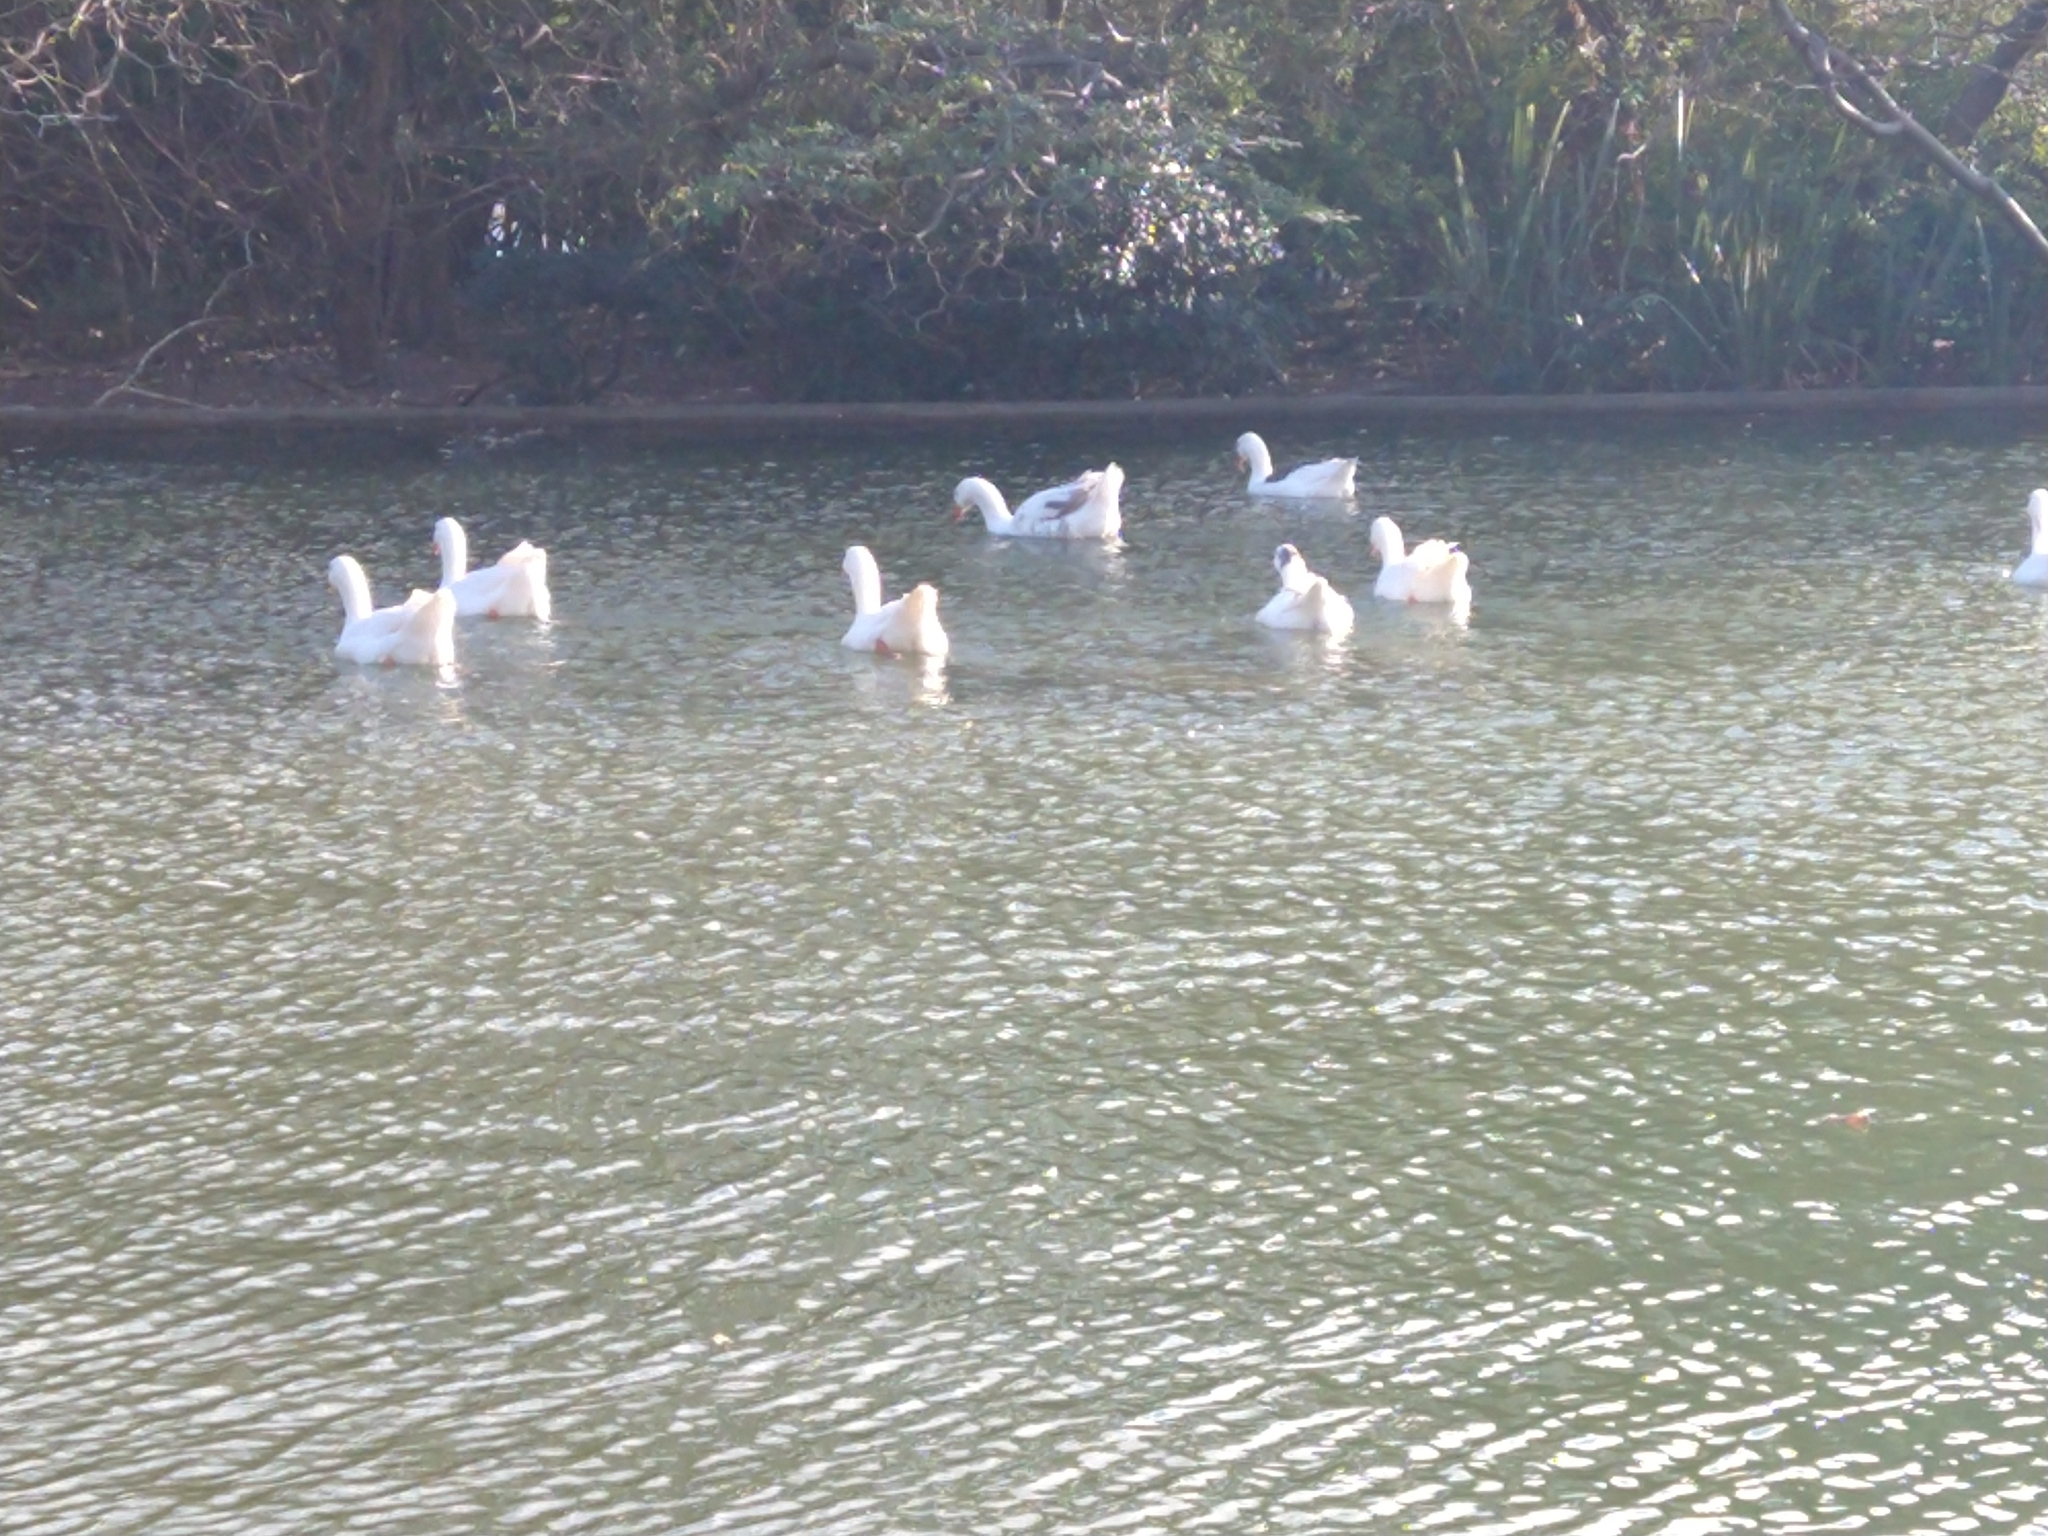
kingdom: Animalia
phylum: Chordata
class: Aves
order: Anseriformes
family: Anatidae
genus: Anser
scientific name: Anser anser
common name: Greylag goose
